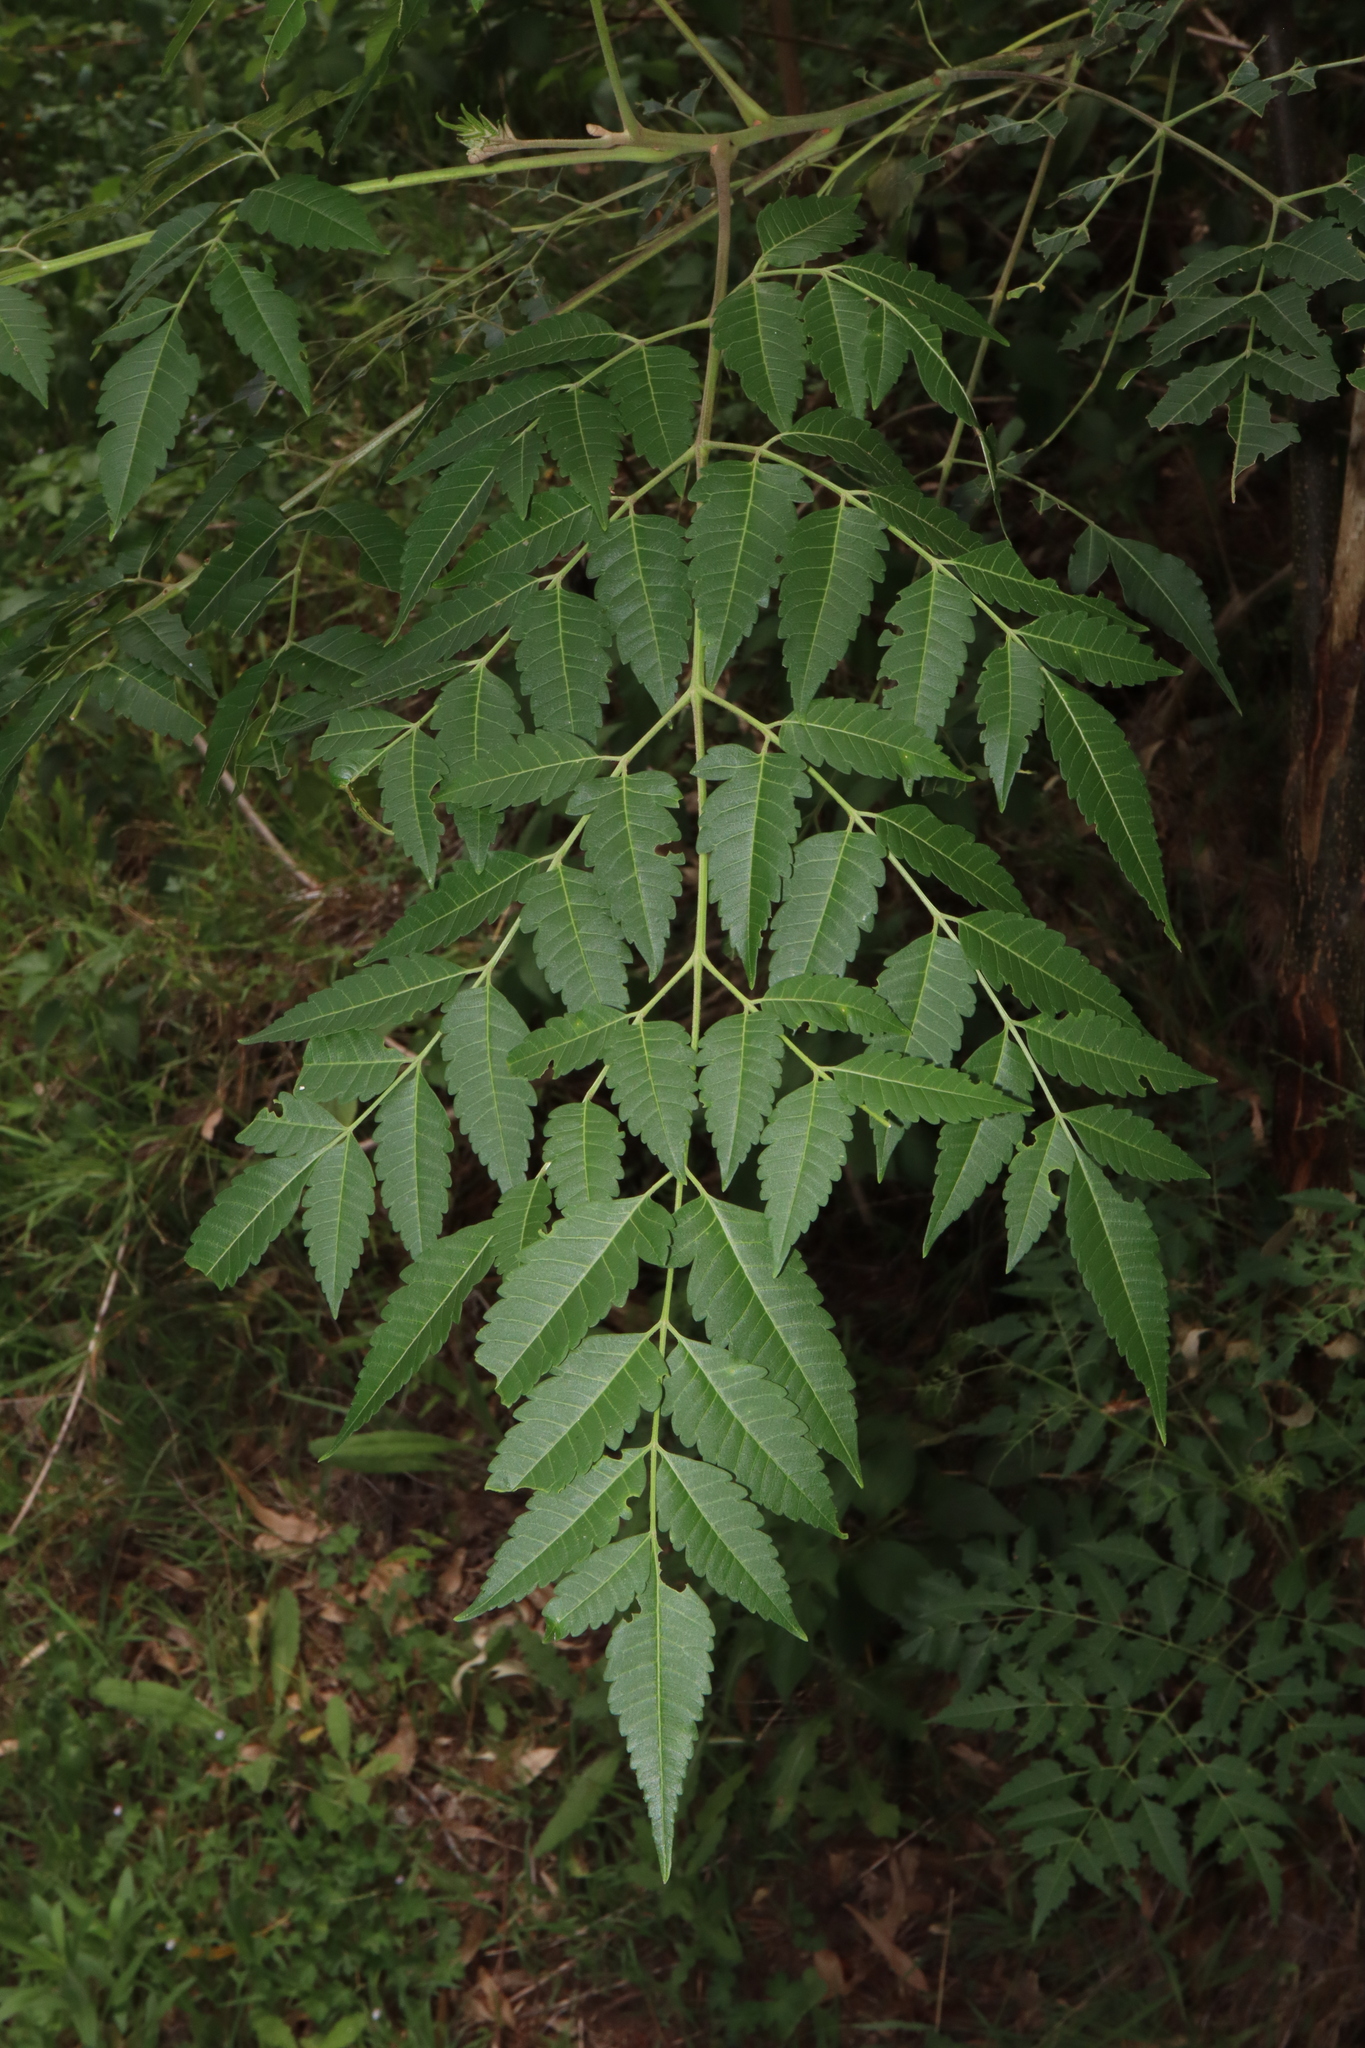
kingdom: Plantae
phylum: Tracheophyta
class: Magnoliopsida
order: Sapindales
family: Meliaceae
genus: Melia
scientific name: Melia azedarach
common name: Chinaberrytree
